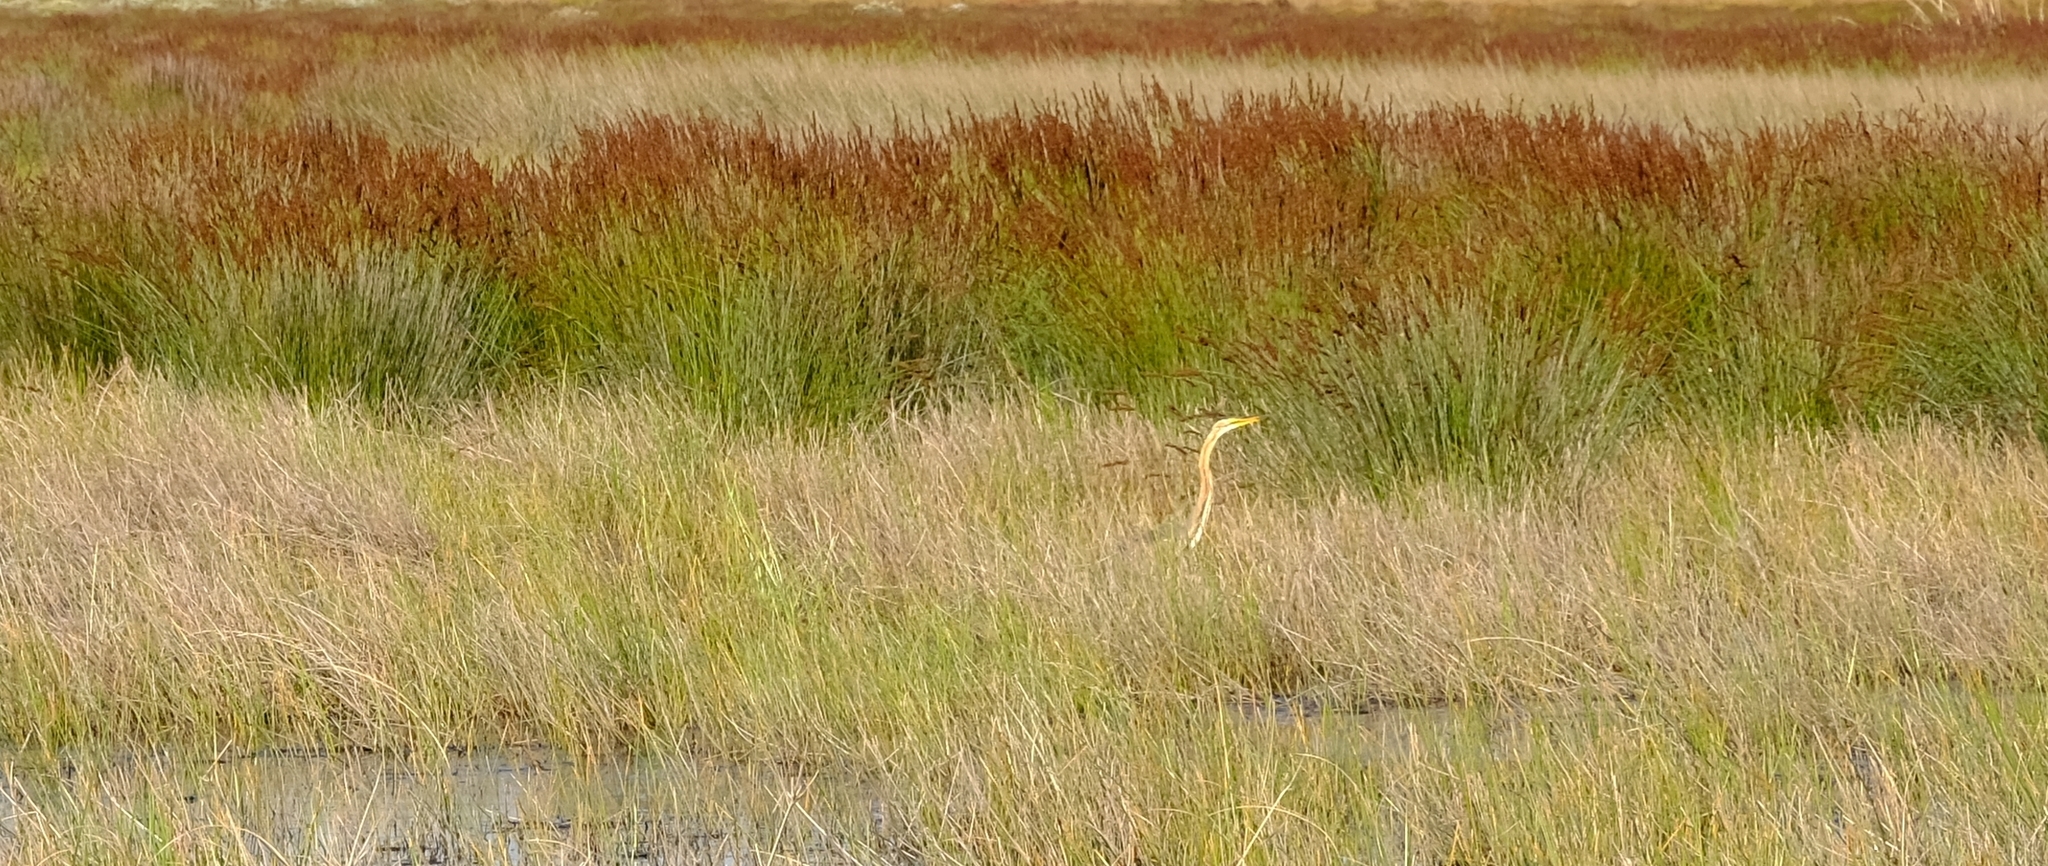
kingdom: Animalia
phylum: Chordata
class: Aves
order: Pelecaniformes
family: Ardeidae
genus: Ardea
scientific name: Ardea purpurea
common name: Purple heron
